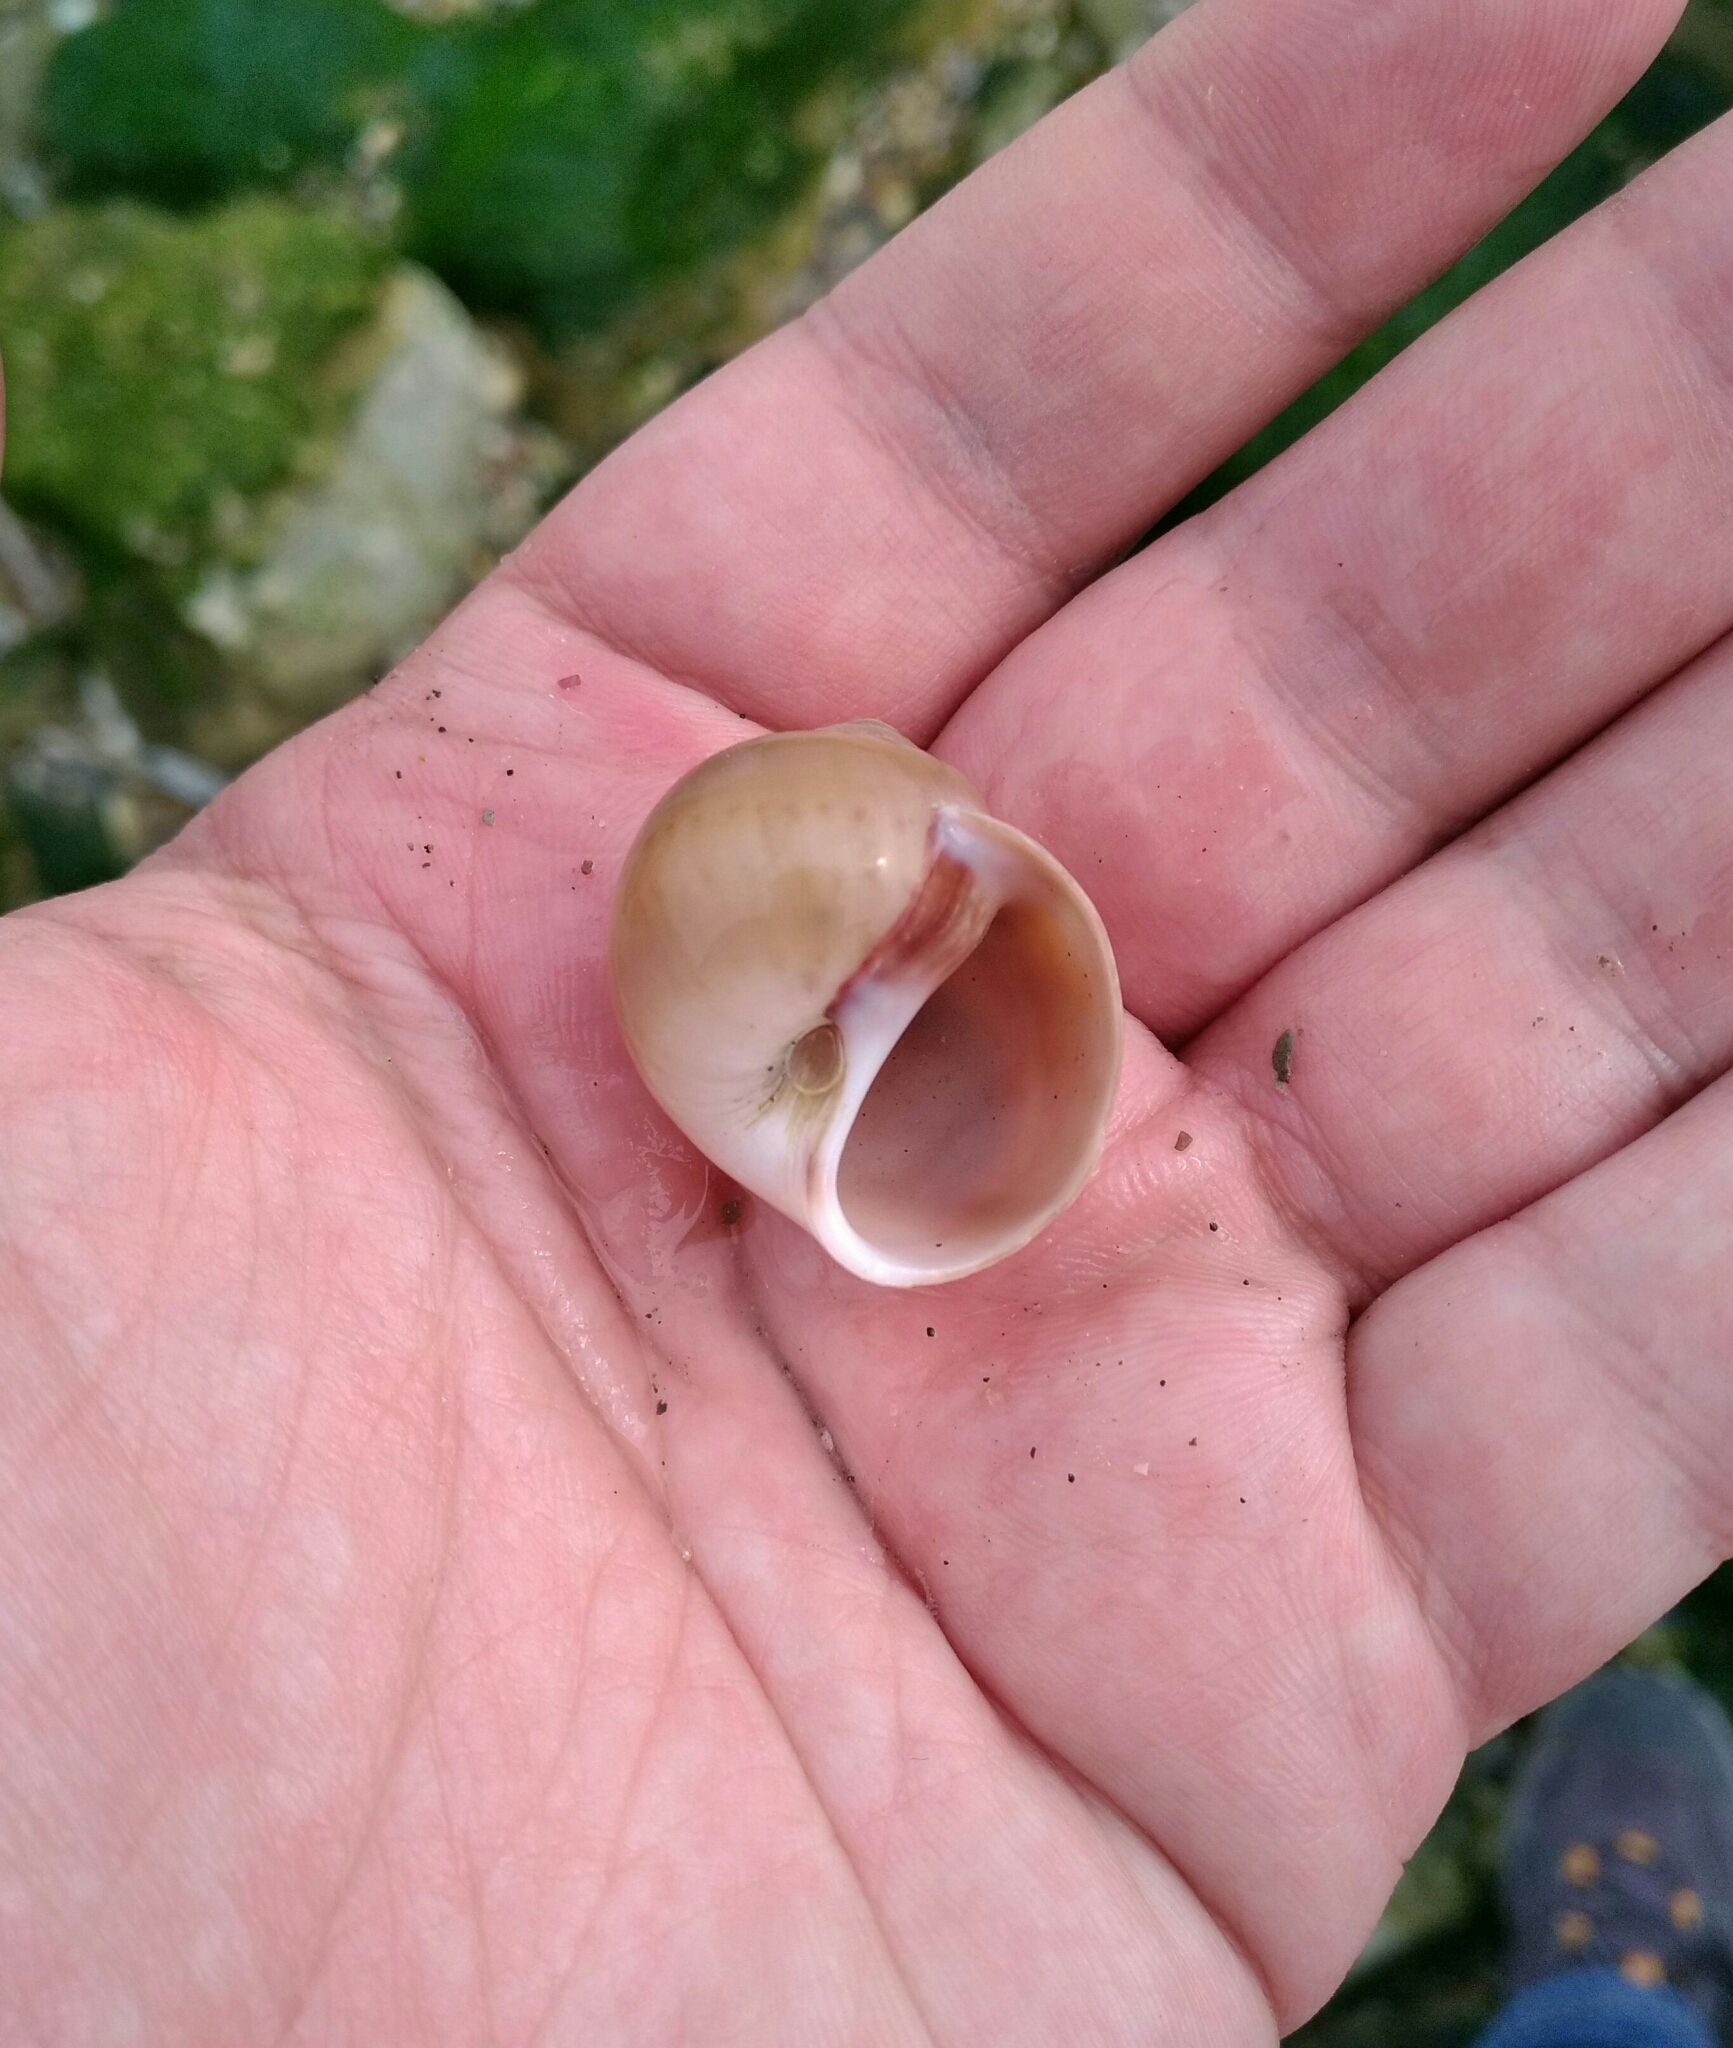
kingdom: Animalia
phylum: Mollusca
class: Gastropoda
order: Littorinimorpha
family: Naticidae
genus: Euspira
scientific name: Euspira catena
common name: Necklace shell
